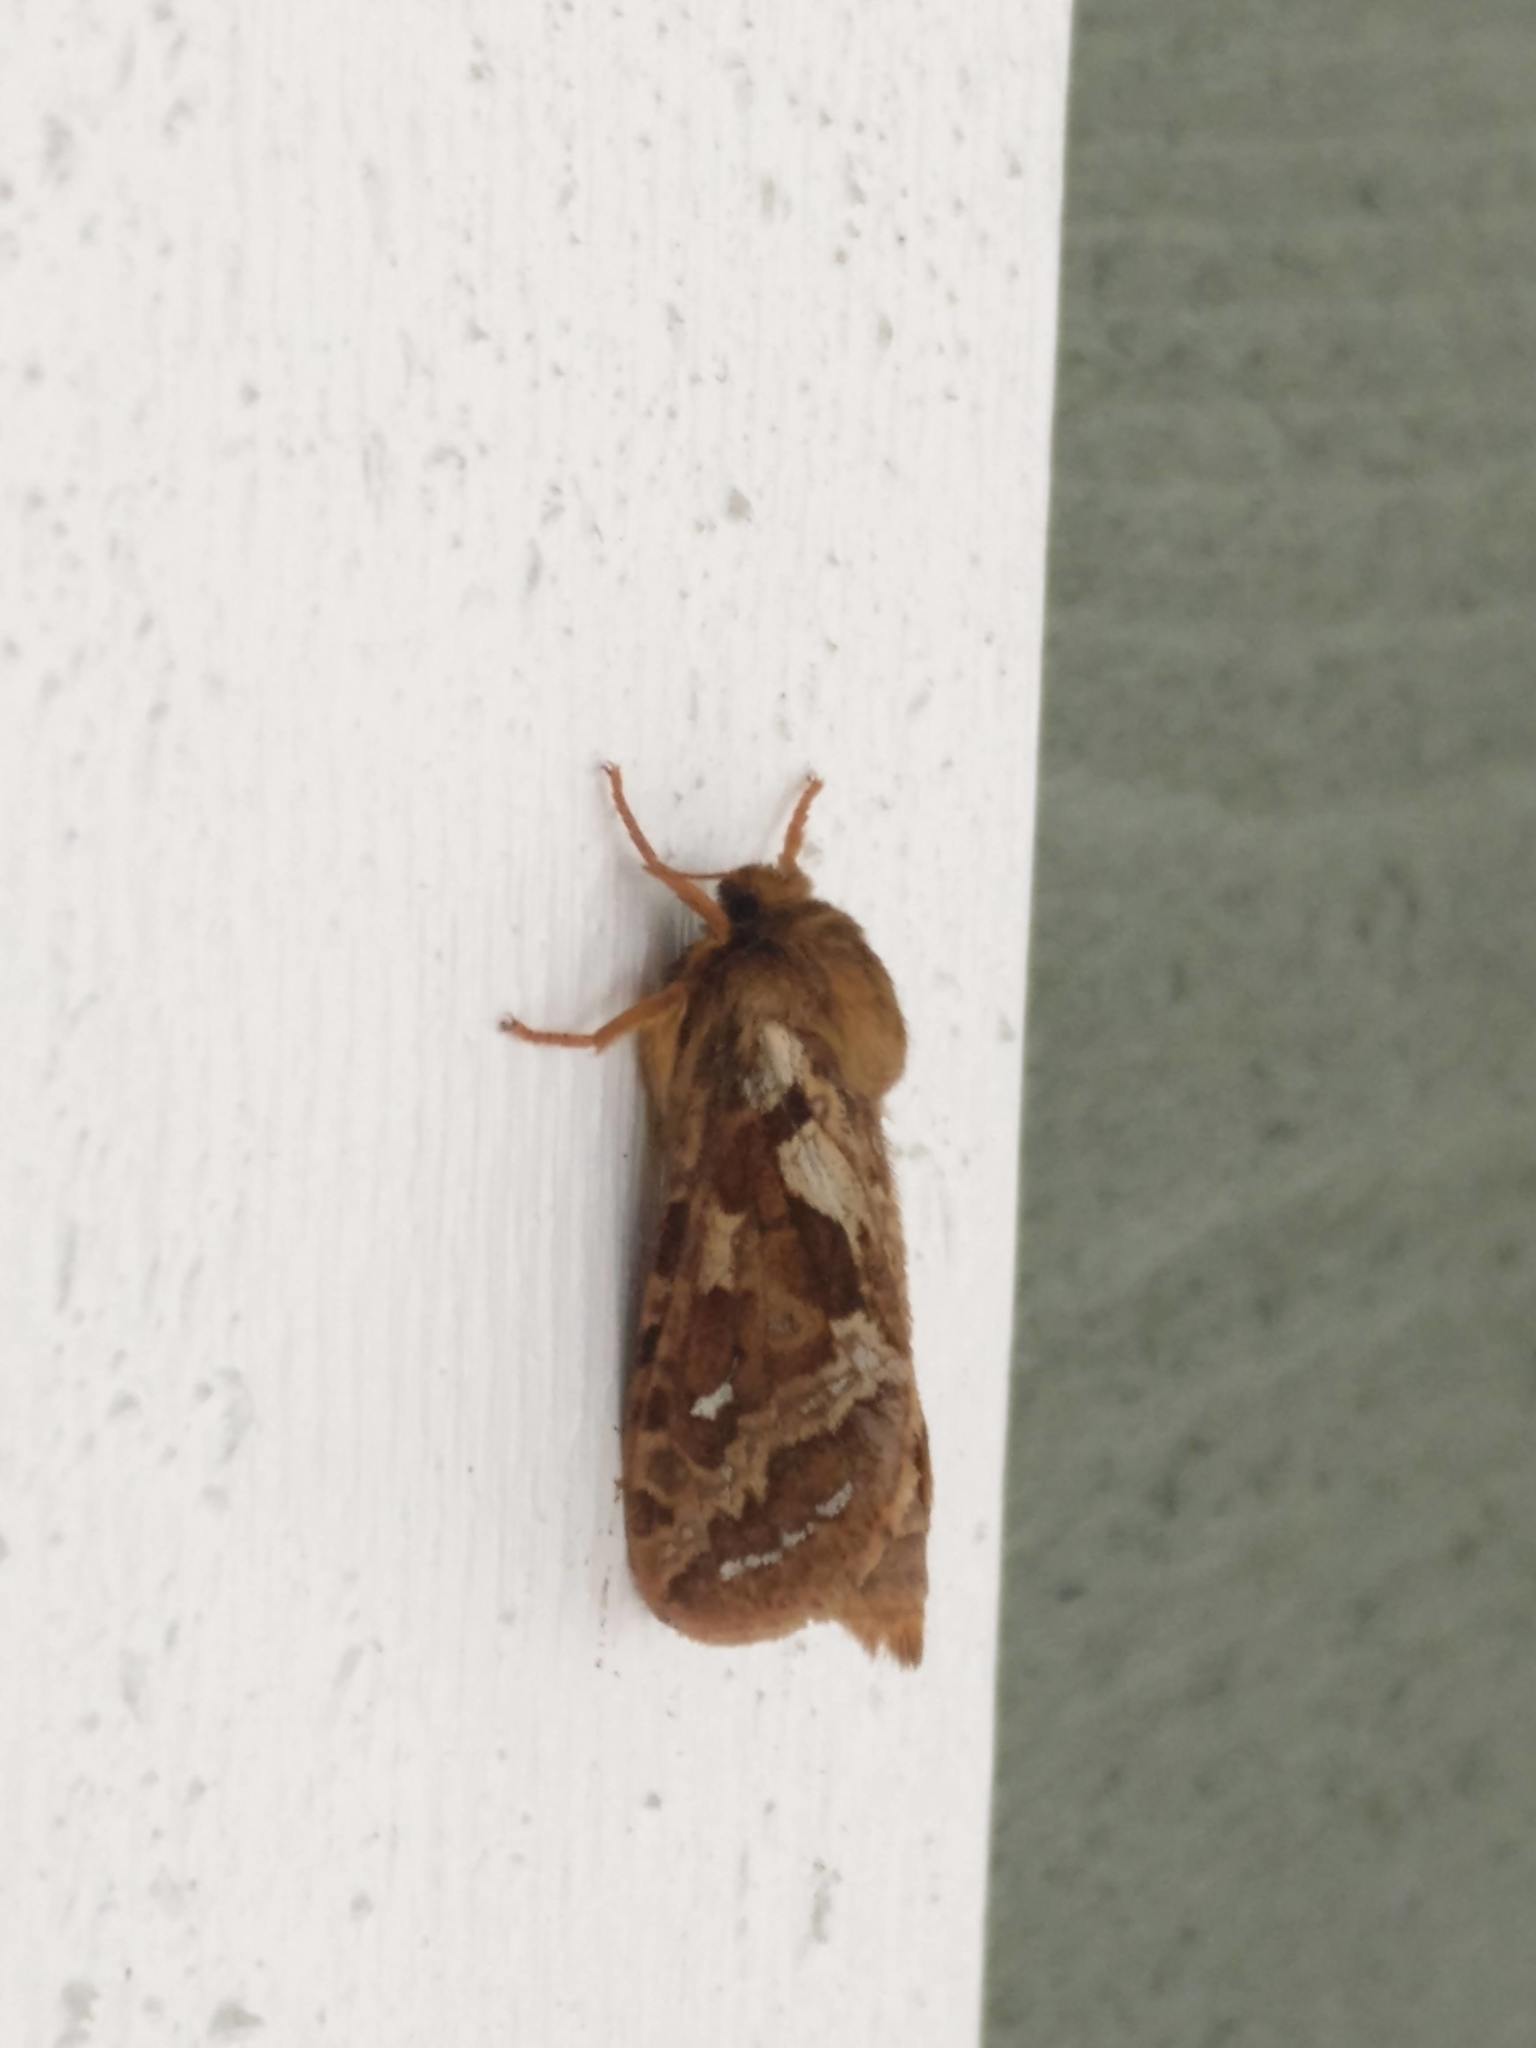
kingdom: Animalia
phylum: Arthropoda
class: Insecta
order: Lepidoptera
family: Hepialidae
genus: Korscheltellus
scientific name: Korscheltellus fusconebulosus
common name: Map-winged swift
